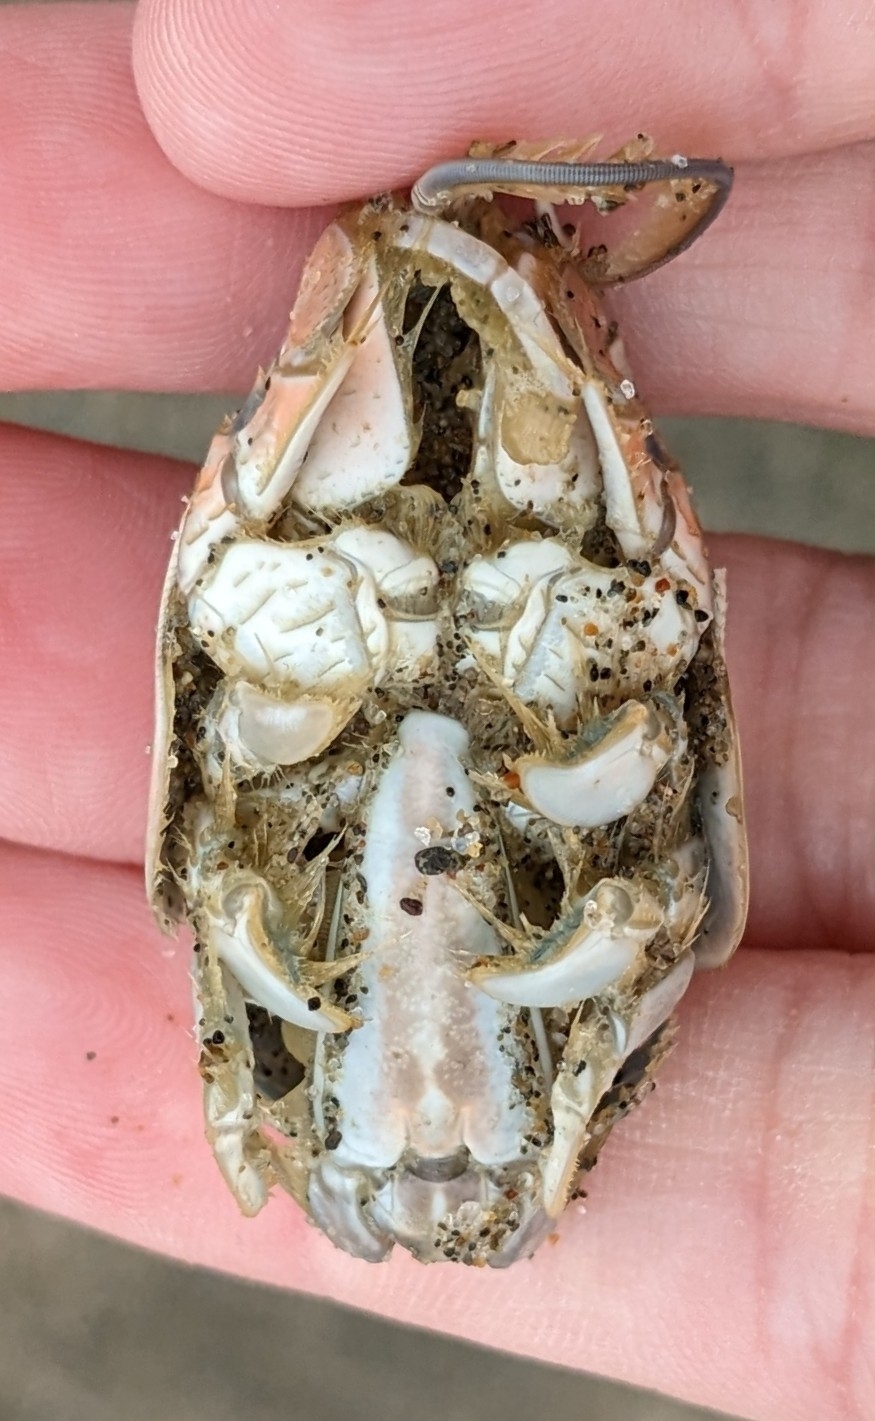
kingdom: Animalia
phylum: Arthropoda
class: Malacostraca
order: Decapoda
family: Hippidae
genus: Emerita
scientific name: Emerita analoga
